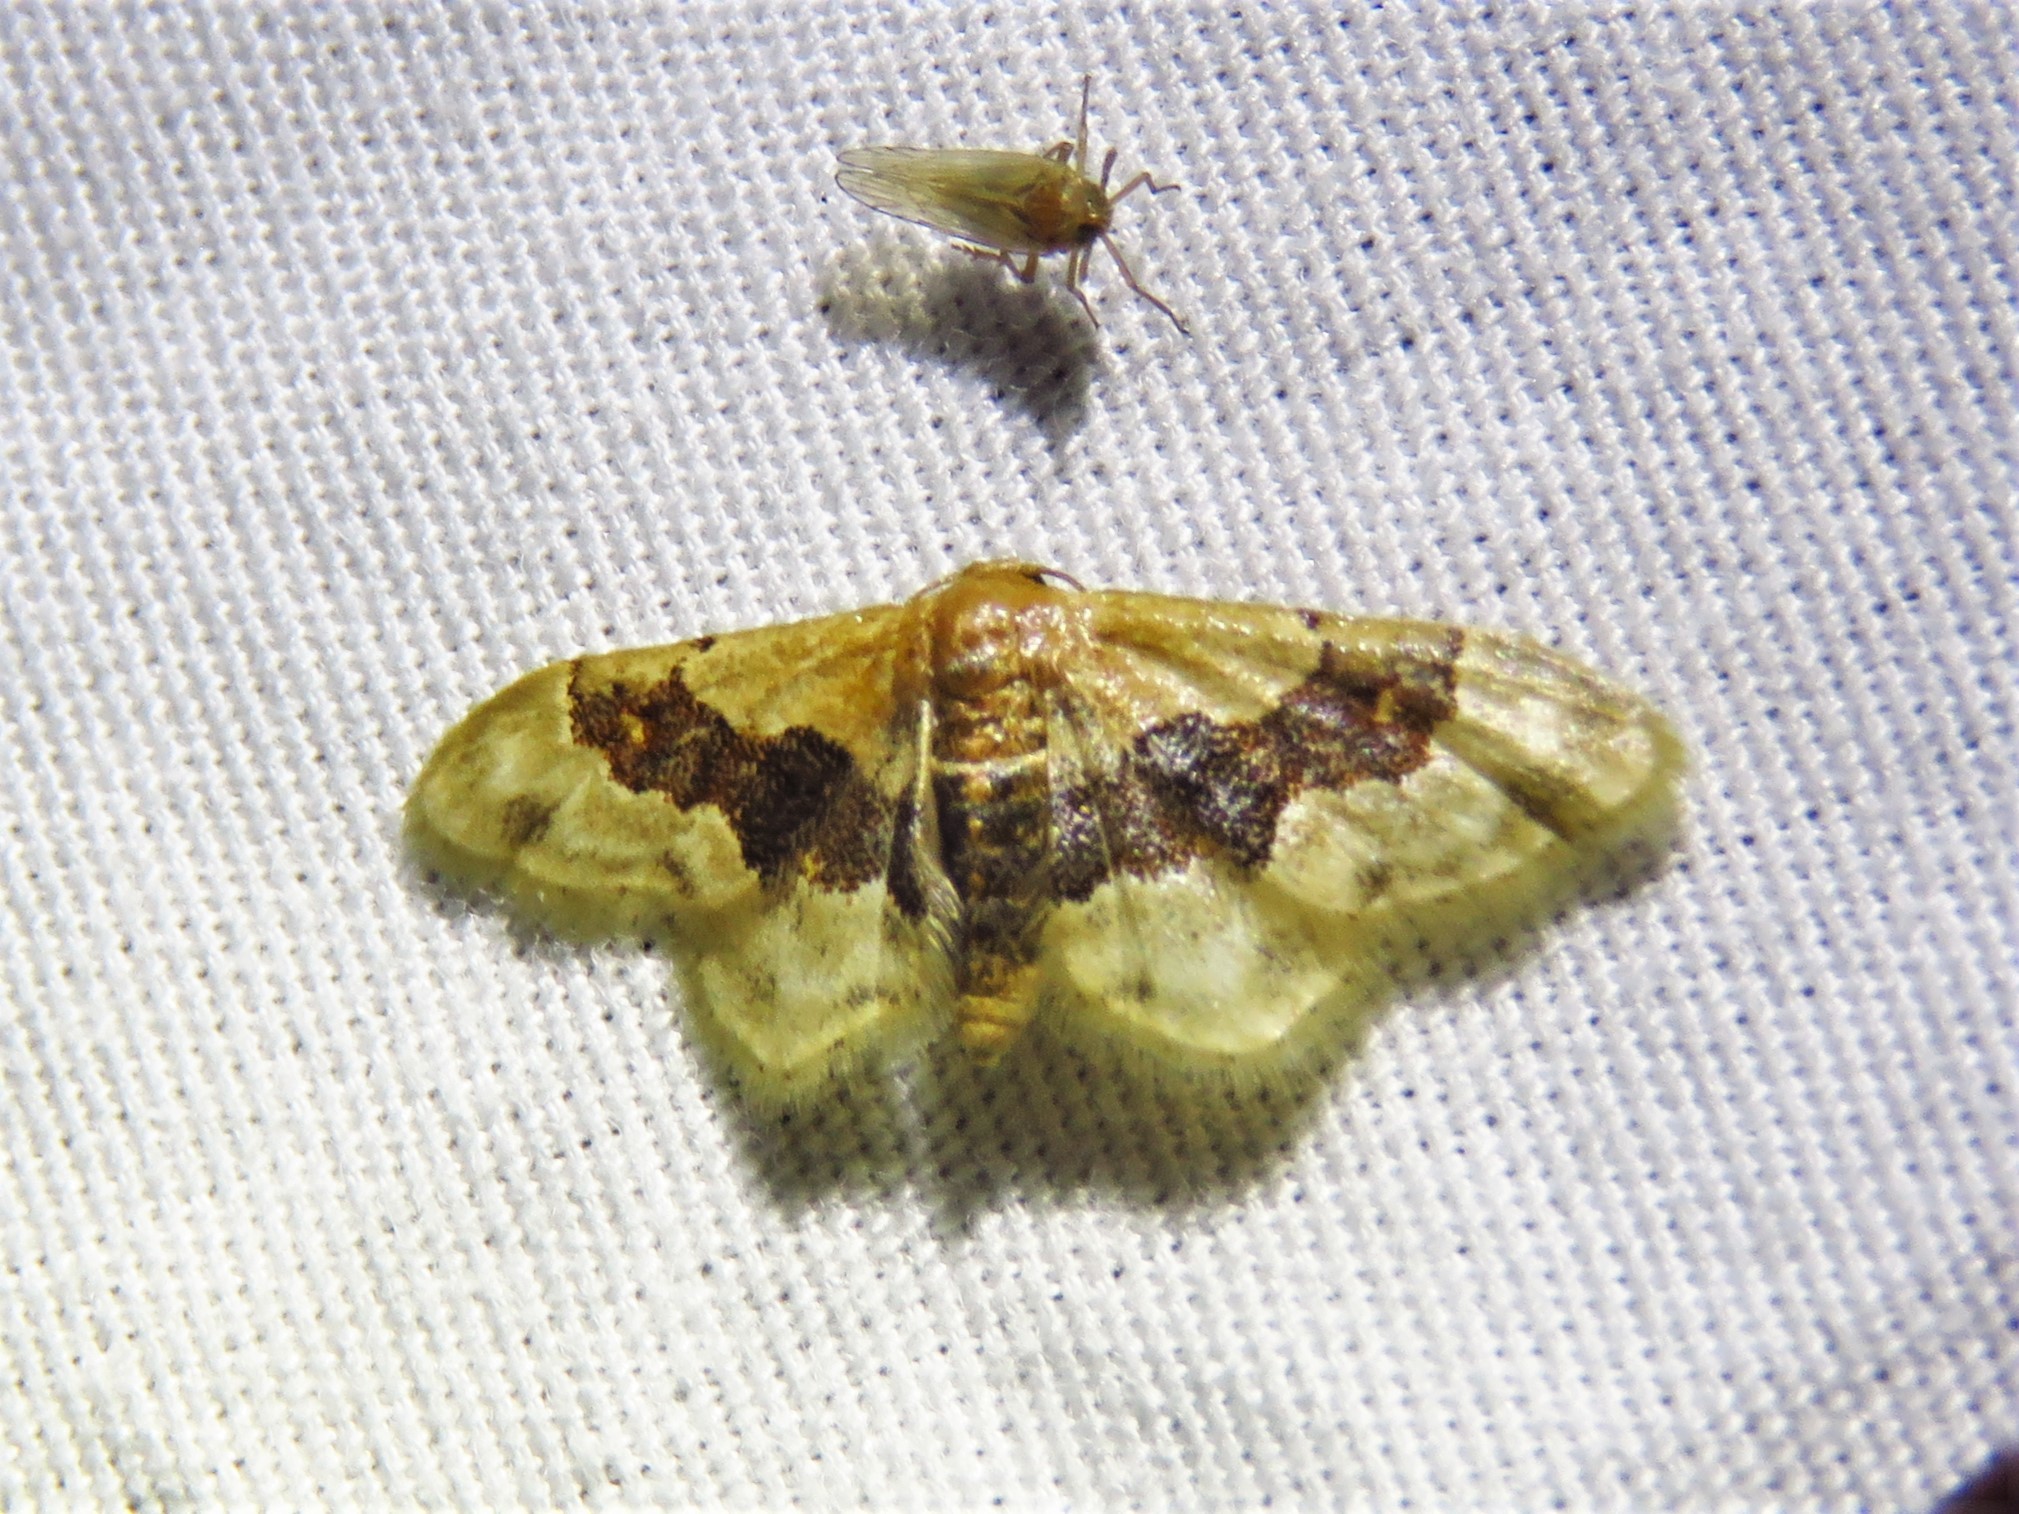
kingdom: Animalia
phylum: Arthropoda
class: Insecta
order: Lepidoptera
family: Geometridae
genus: Idaea
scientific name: Idaea gemmata
